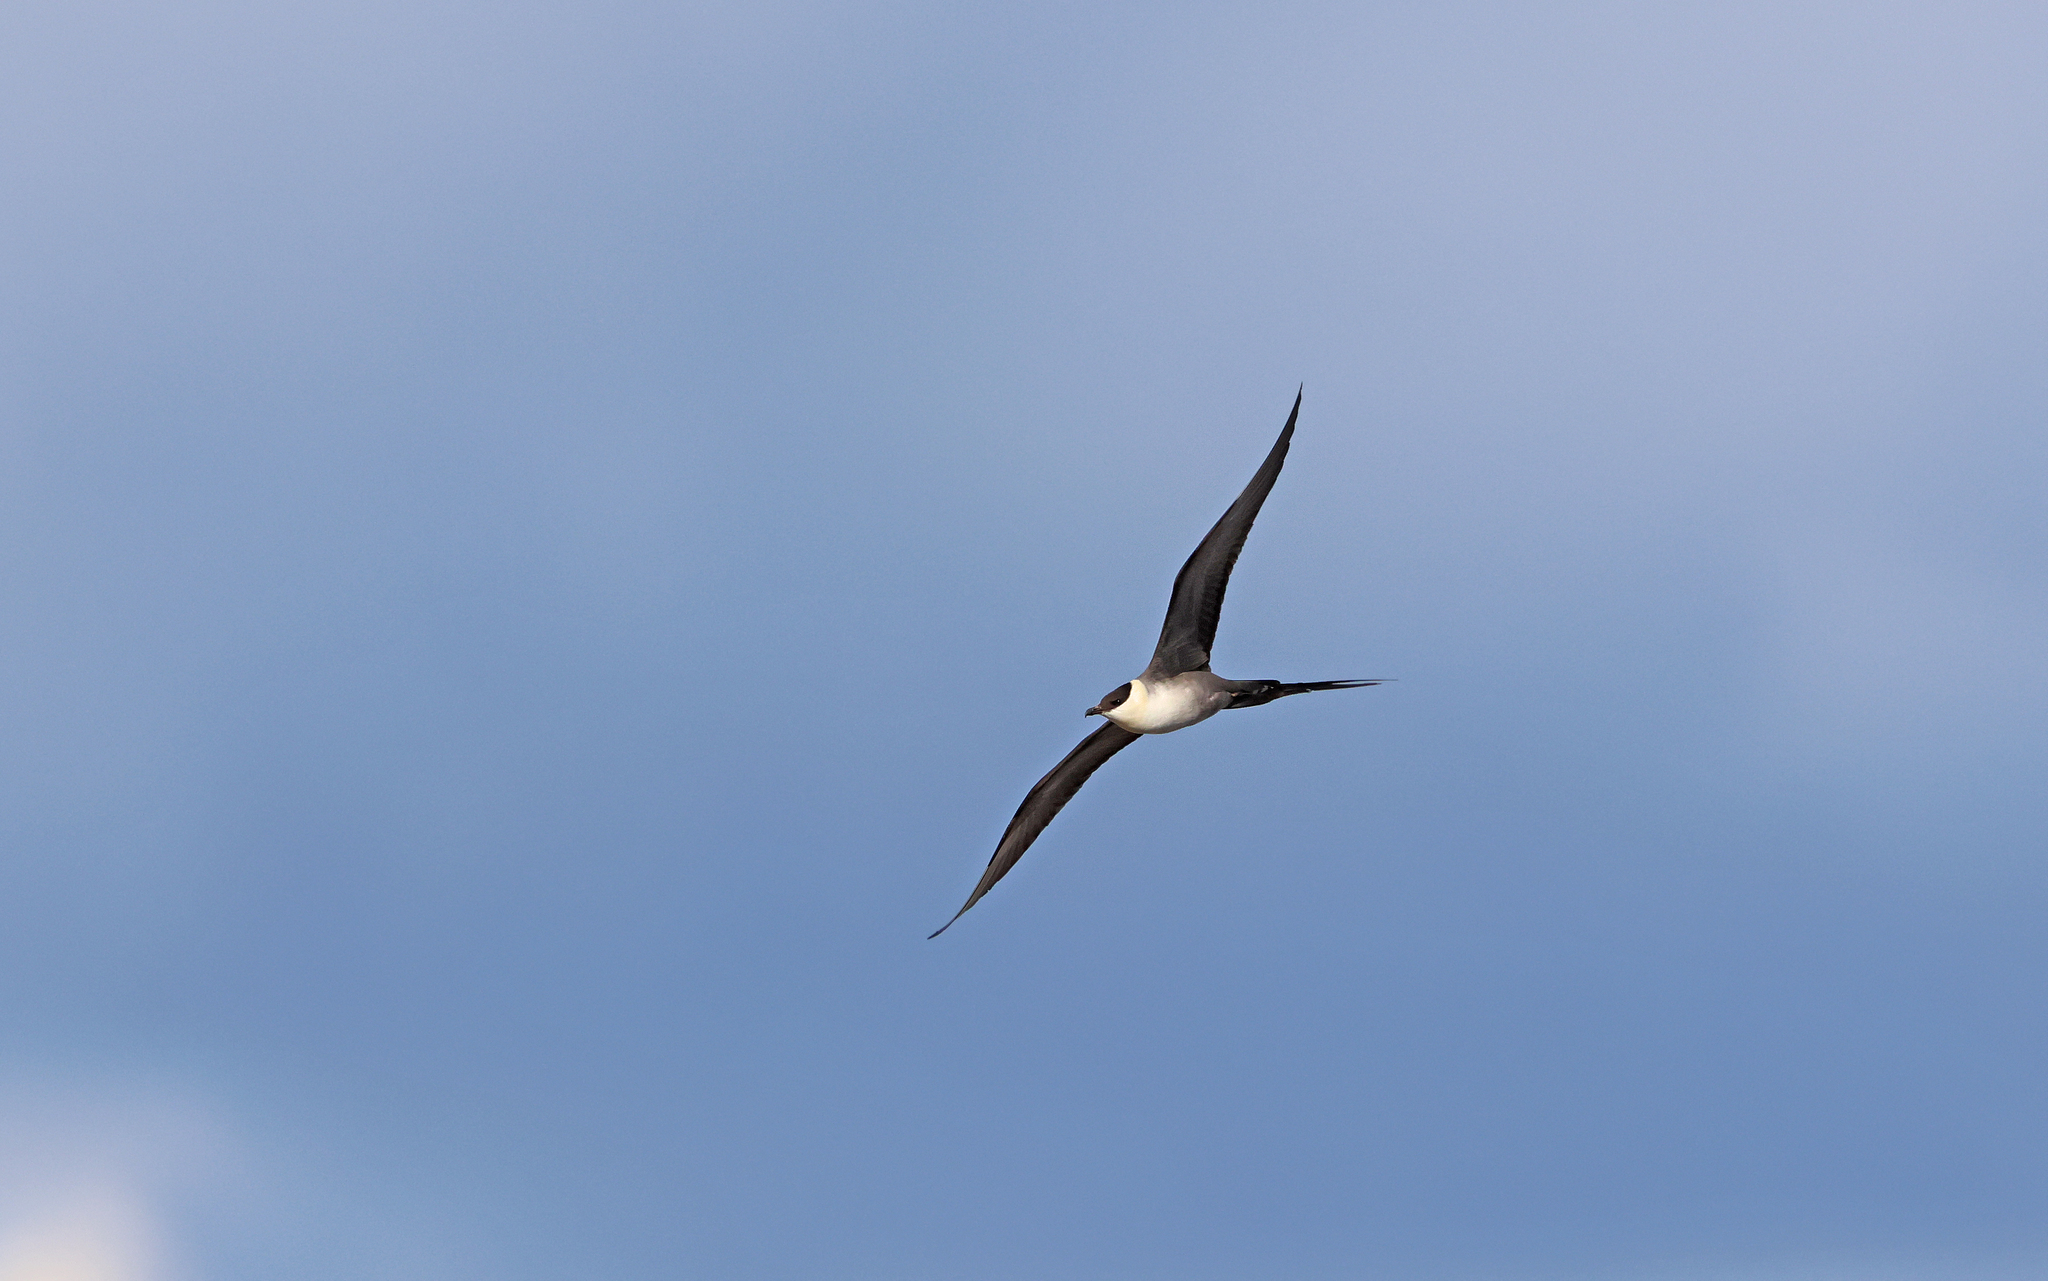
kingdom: Animalia
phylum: Chordata
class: Aves
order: Charadriiformes
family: Stercorariidae
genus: Stercorarius
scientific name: Stercorarius longicaudus
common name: Long-tailed jaeger
